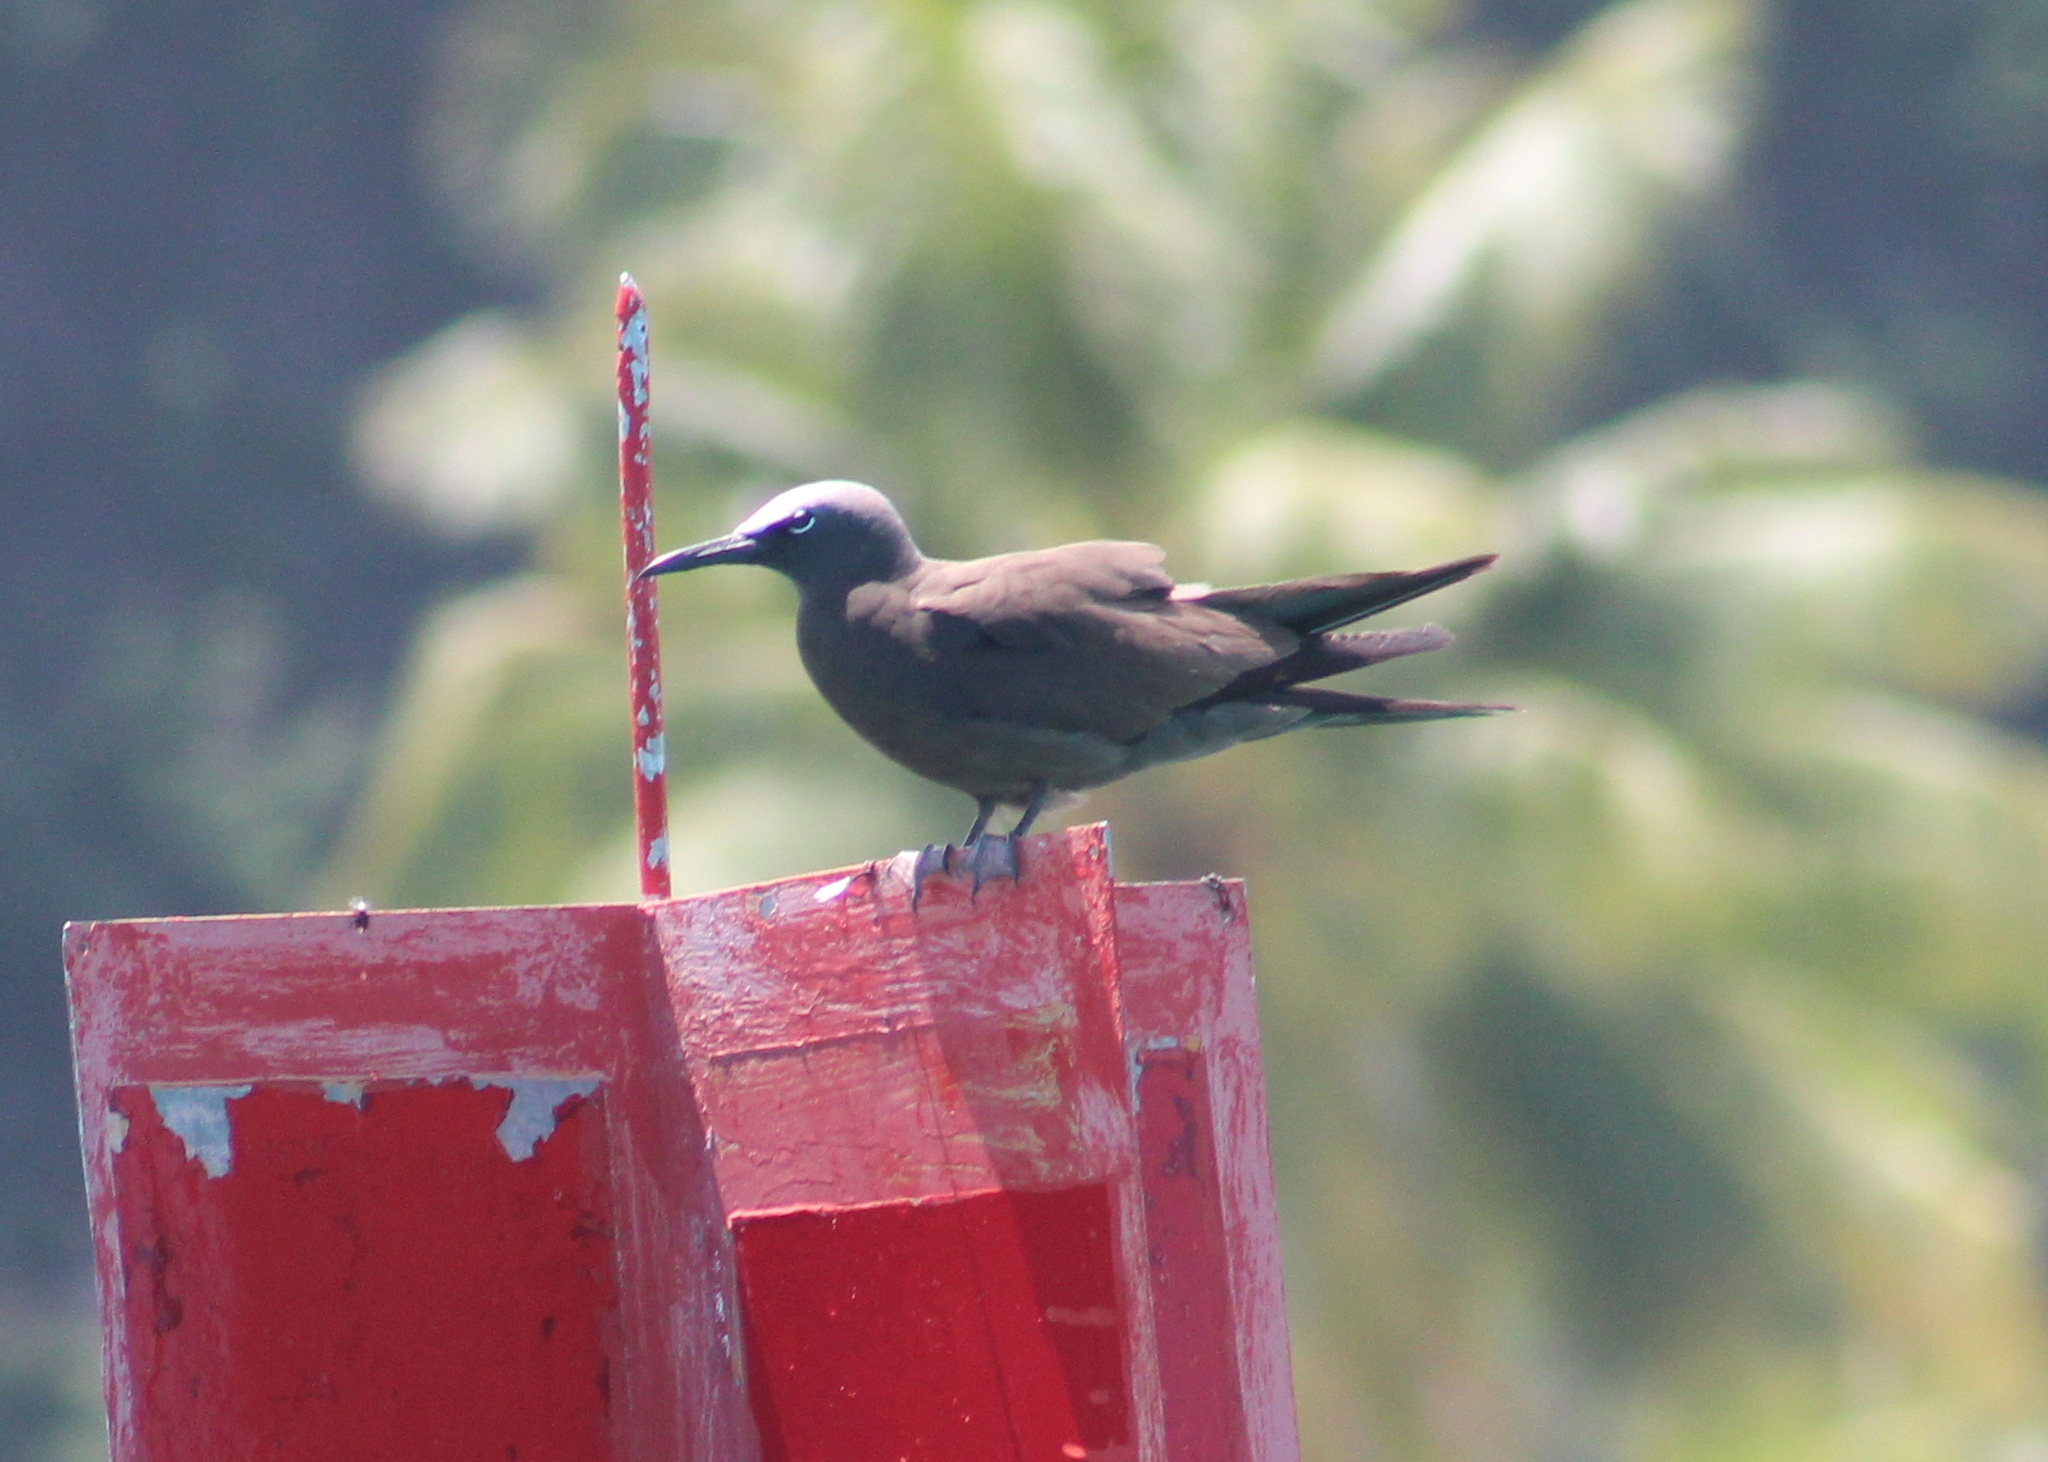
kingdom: Animalia
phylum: Chordata
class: Aves
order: Charadriiformes
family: Laridae
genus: Anous
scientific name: Anous stolidus
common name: Brown noddy
